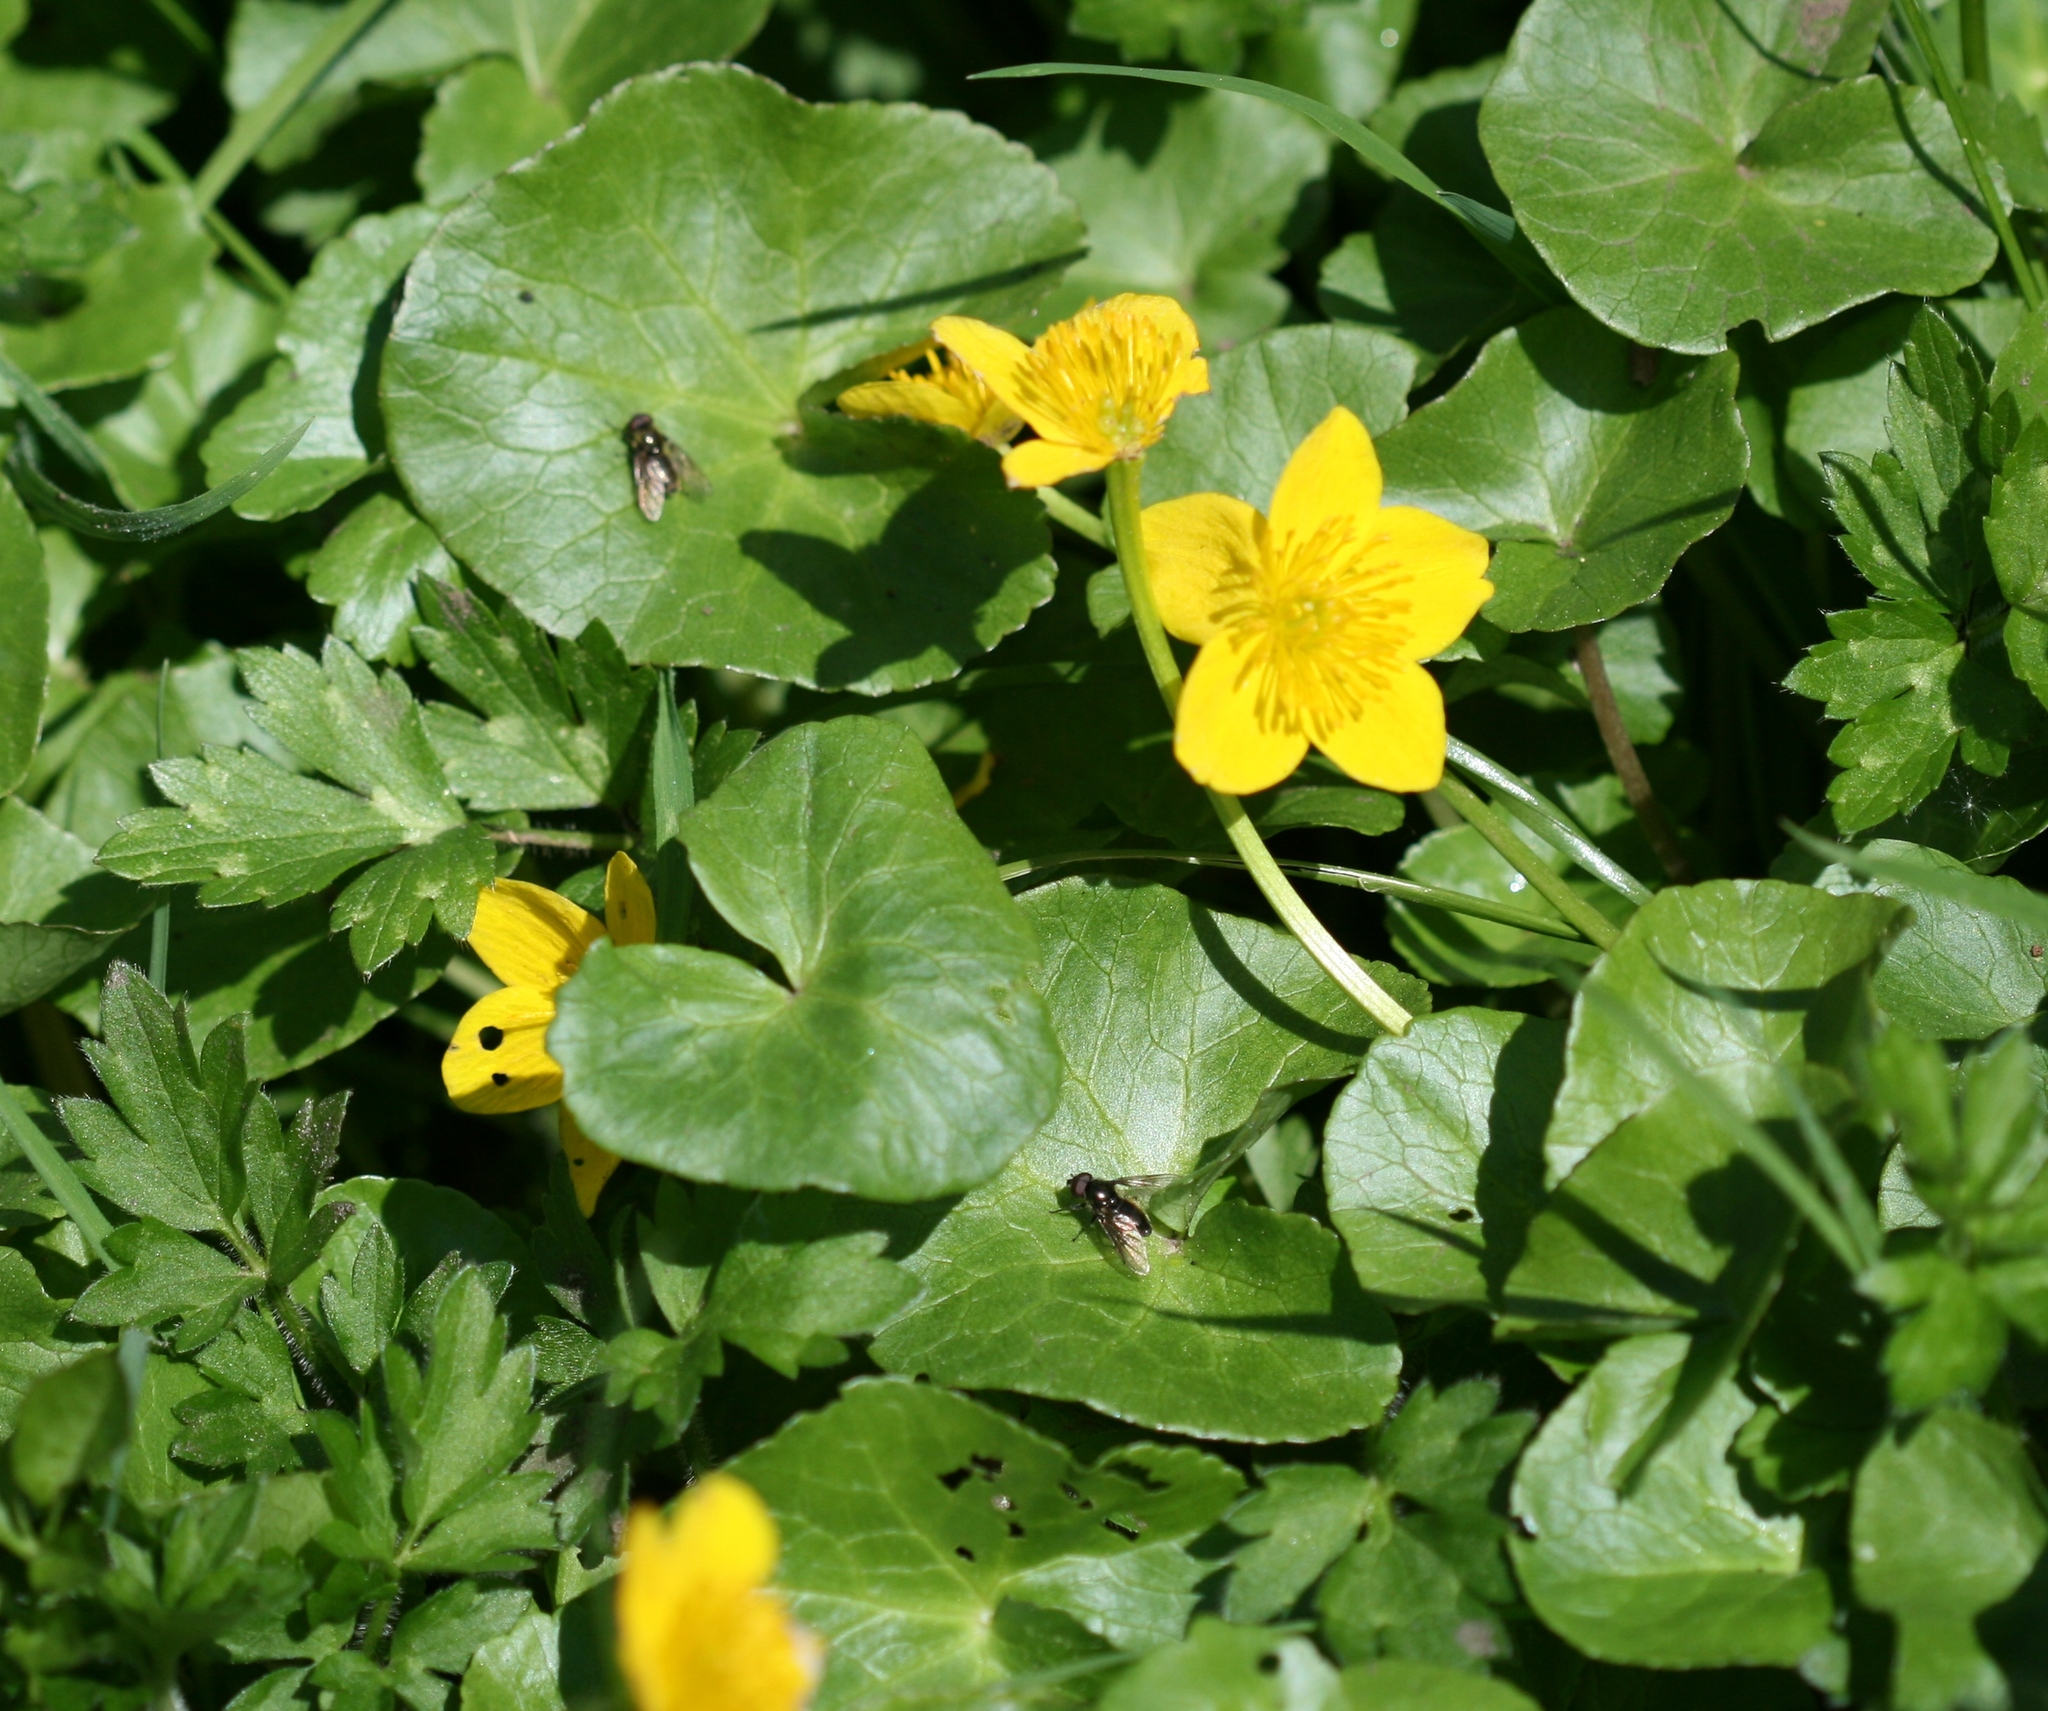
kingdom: Plantae
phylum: Tracheophyta
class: Magnoliopsida
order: Ranunculales
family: Ranunculaceae
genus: Caltha
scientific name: Caltha palustris
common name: Marsh marigold
